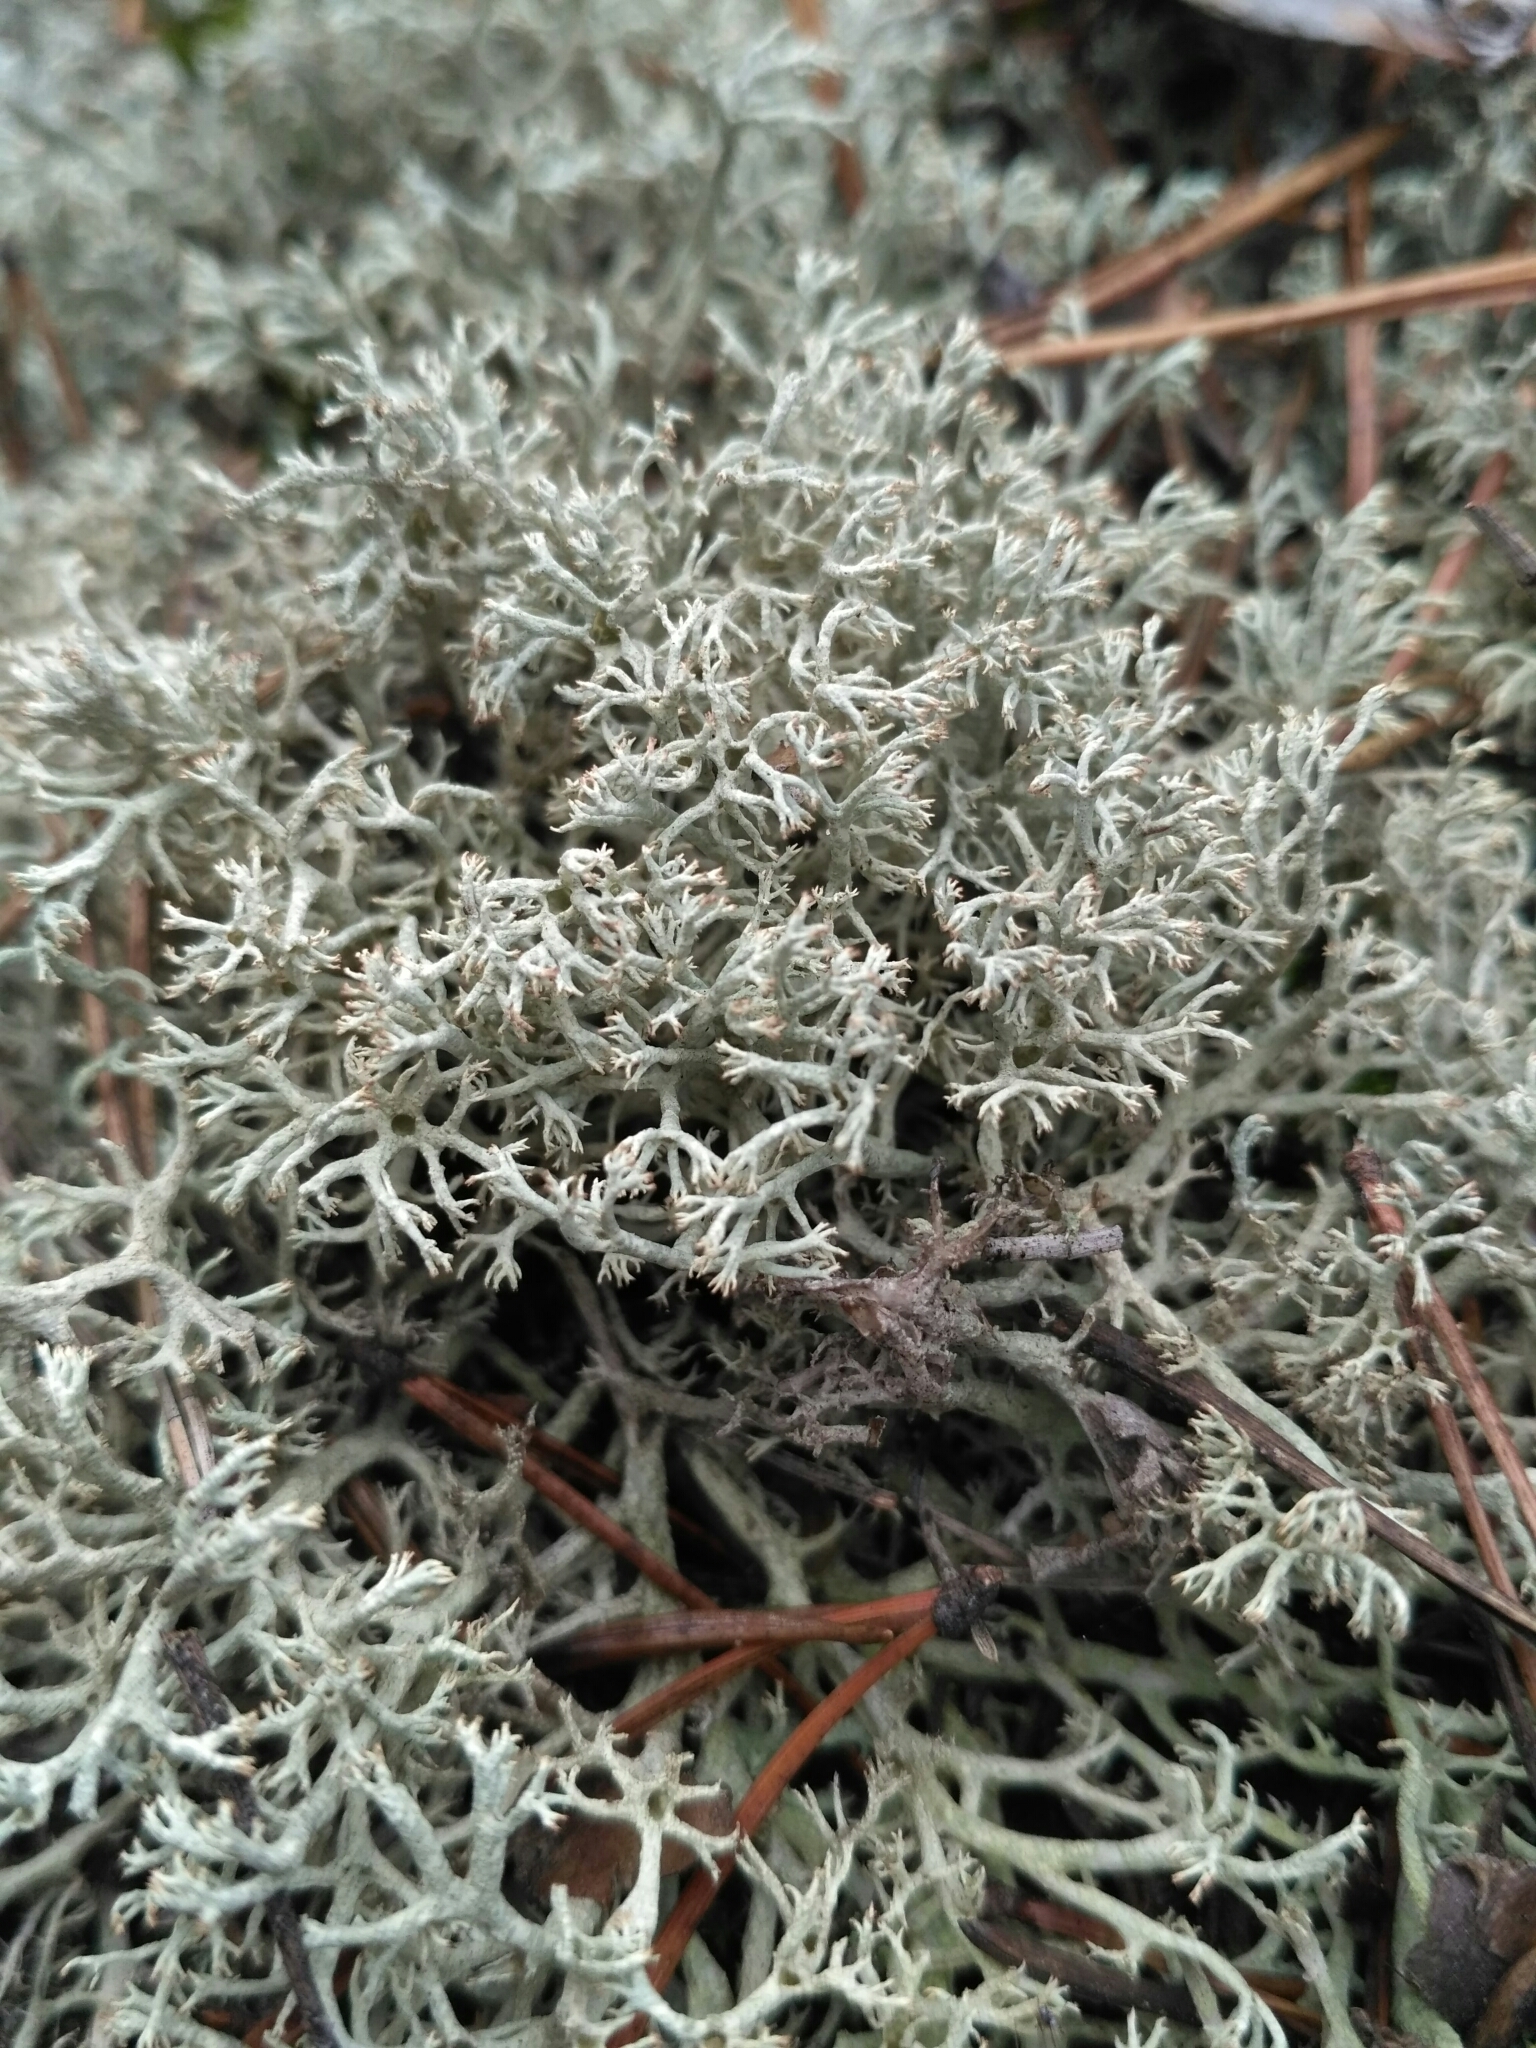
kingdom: Fungi
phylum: Ascomycota
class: Lecanoromycetes
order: Lecanorales
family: Cladoniaceae
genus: Cladonia
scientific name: Cladonia rangiferina
